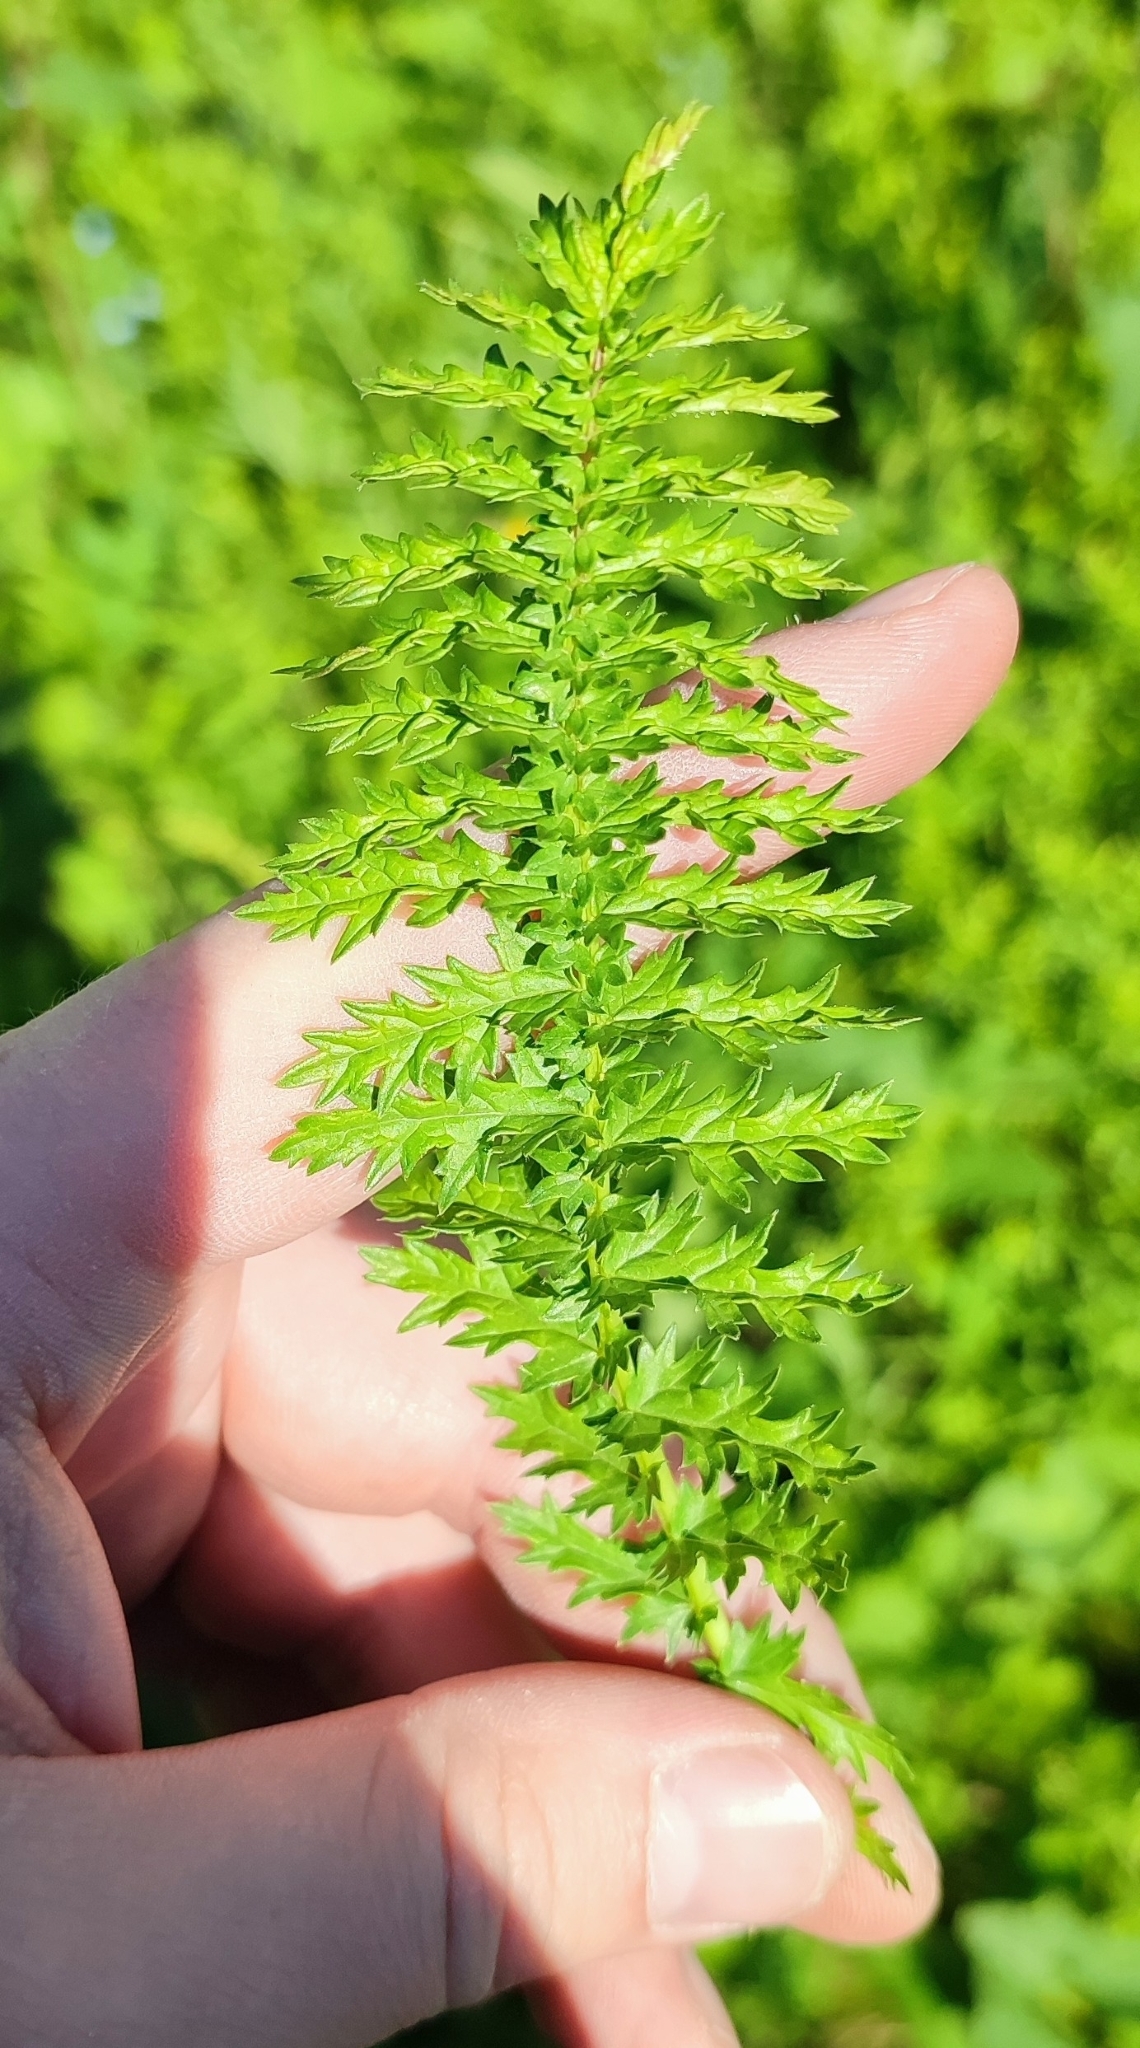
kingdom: Plantae
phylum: Tracheophyta
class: Magnoliopsida
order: Rosales
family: Rosaceae
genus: Filipendula
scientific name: Filipendula vulgaris
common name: Dropwort
